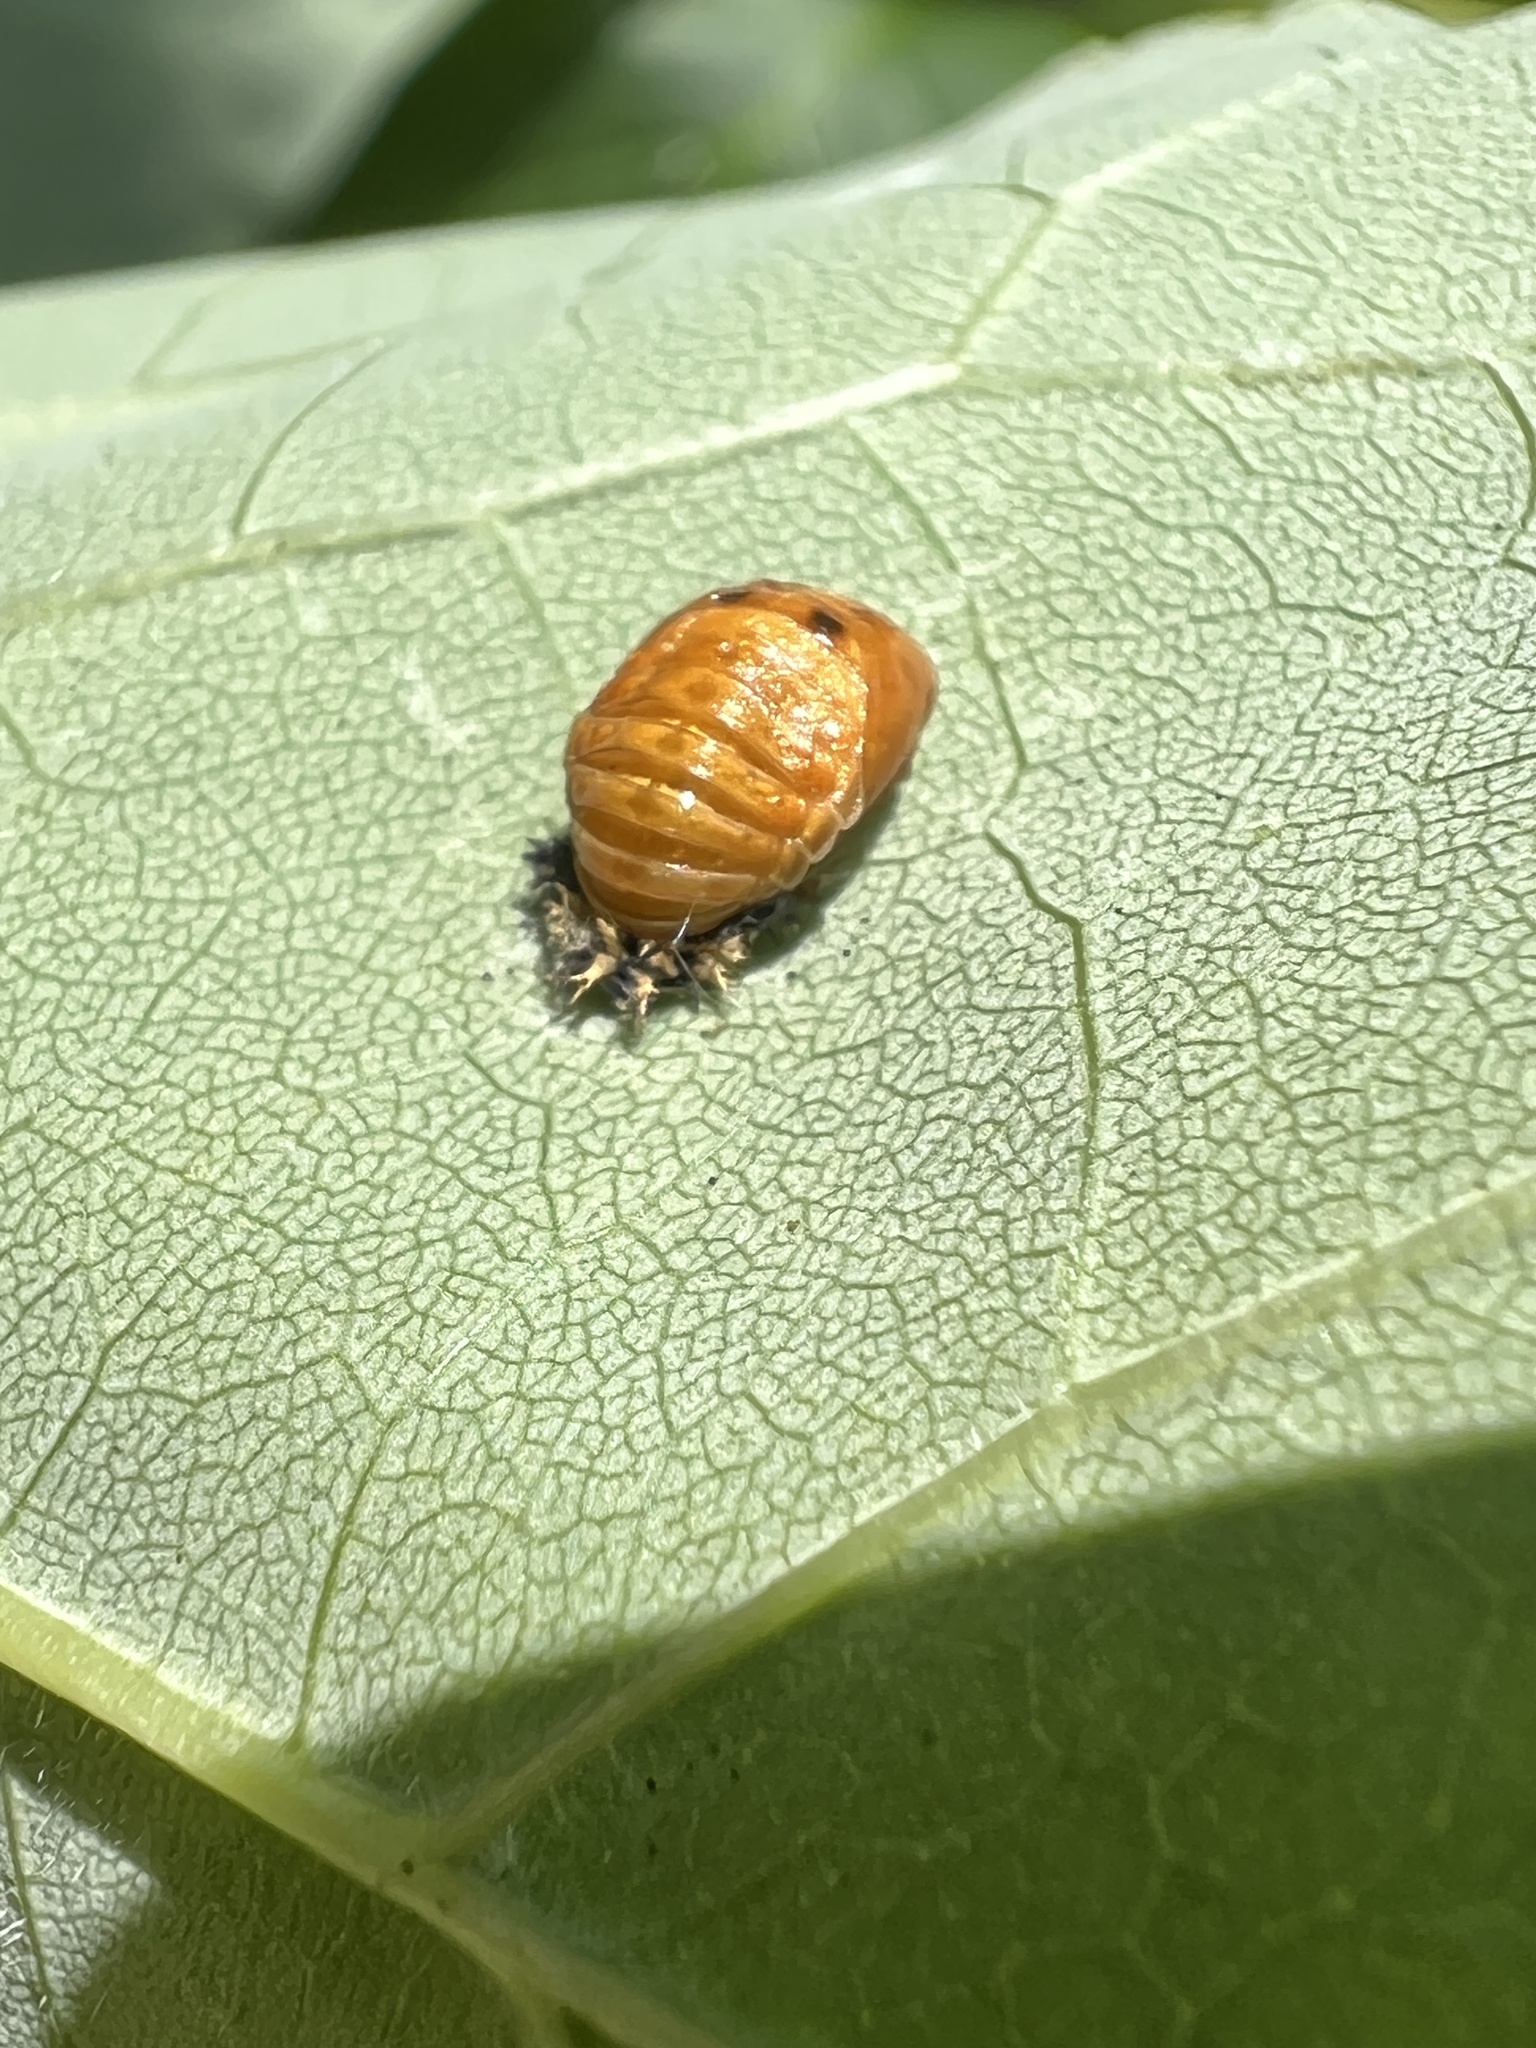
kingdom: Animalia
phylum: Arthropoda
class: Insecta
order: Coleoptera
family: Coccinellidae
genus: Harmonia
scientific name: Harmonia axyridis
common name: Harlequin ladybird
